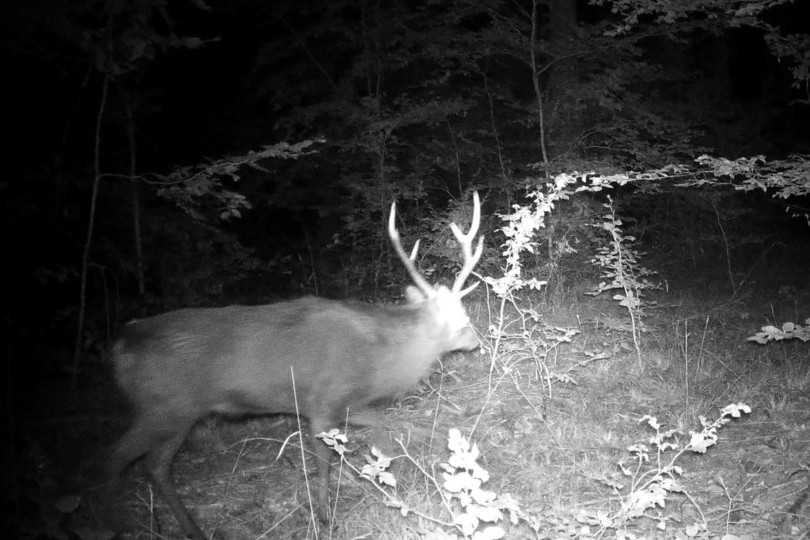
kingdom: Animalia
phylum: Chordata
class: Mammalia
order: Artiodactyla
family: Cervidae
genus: Cervus
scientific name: Cervus elaphus
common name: Red deer
